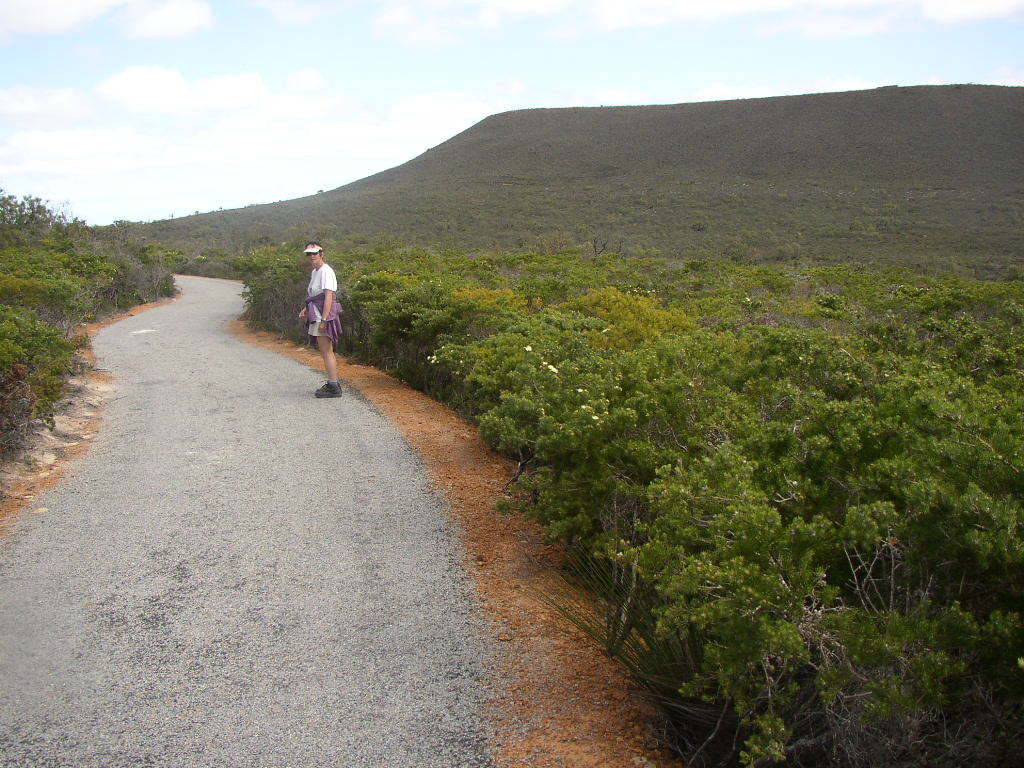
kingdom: Plantae
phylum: Tracheophyta
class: Magnoliopsida
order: Myrtales
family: Myrtaceae
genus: Melaleuca
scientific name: Melaleuca systena
